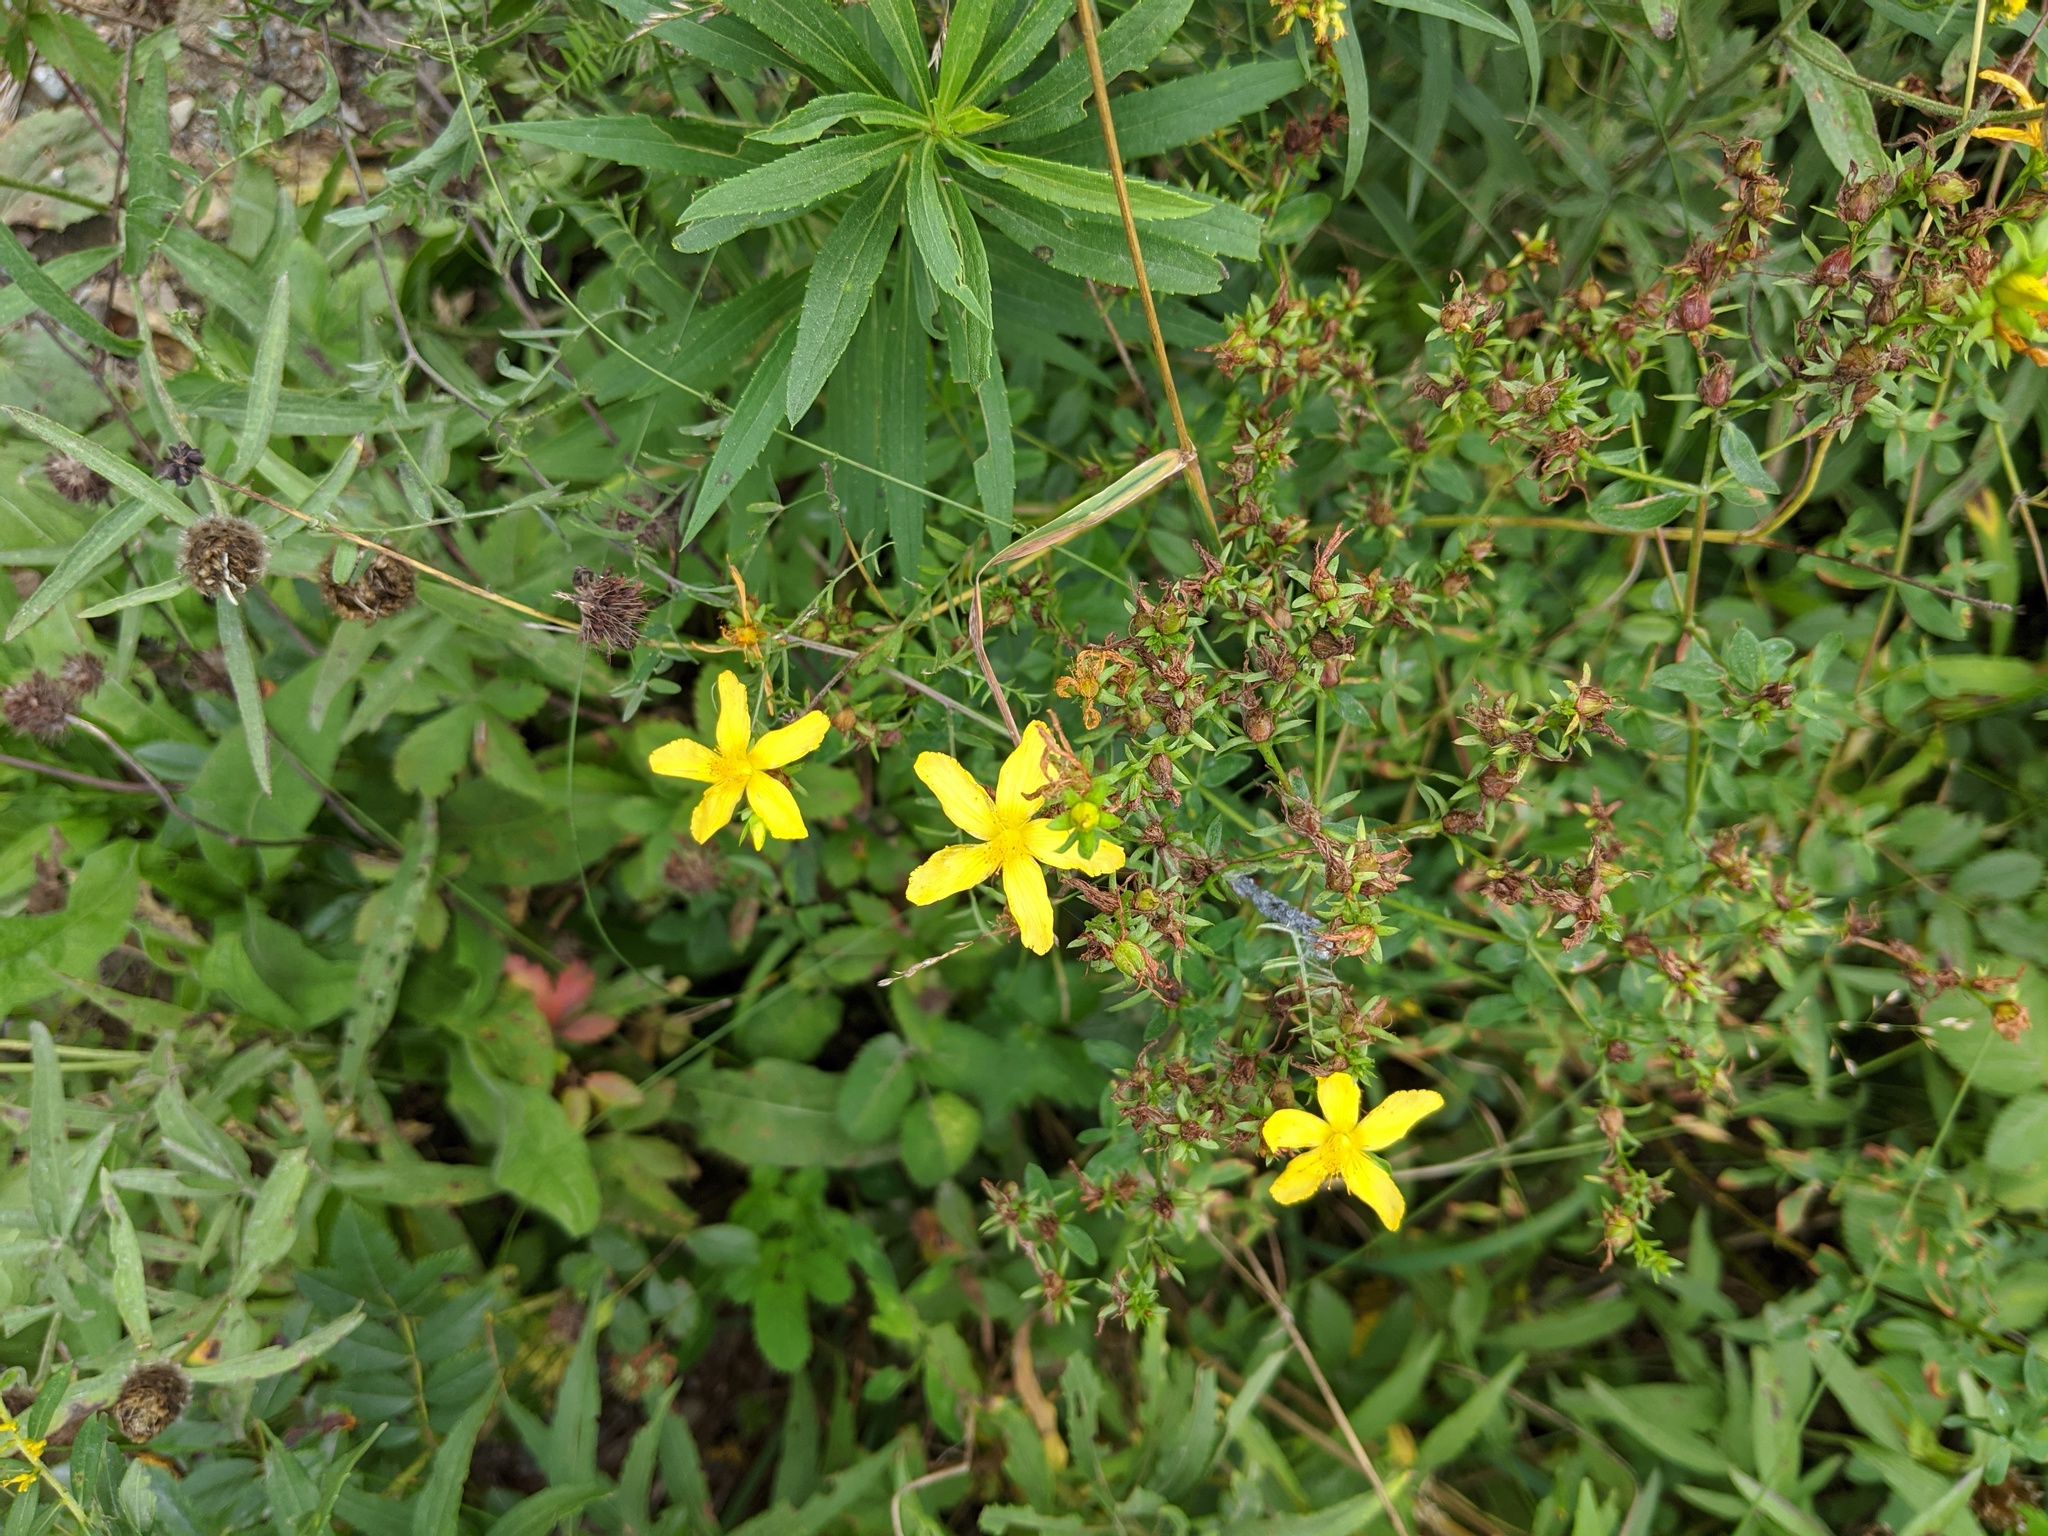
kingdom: Plantae
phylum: Tracheophyta
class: Magnoliopsida
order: Malpighiales
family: Hypericaceae
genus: Hypericum
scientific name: Hypericum perforatum
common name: Common st. johnswort
